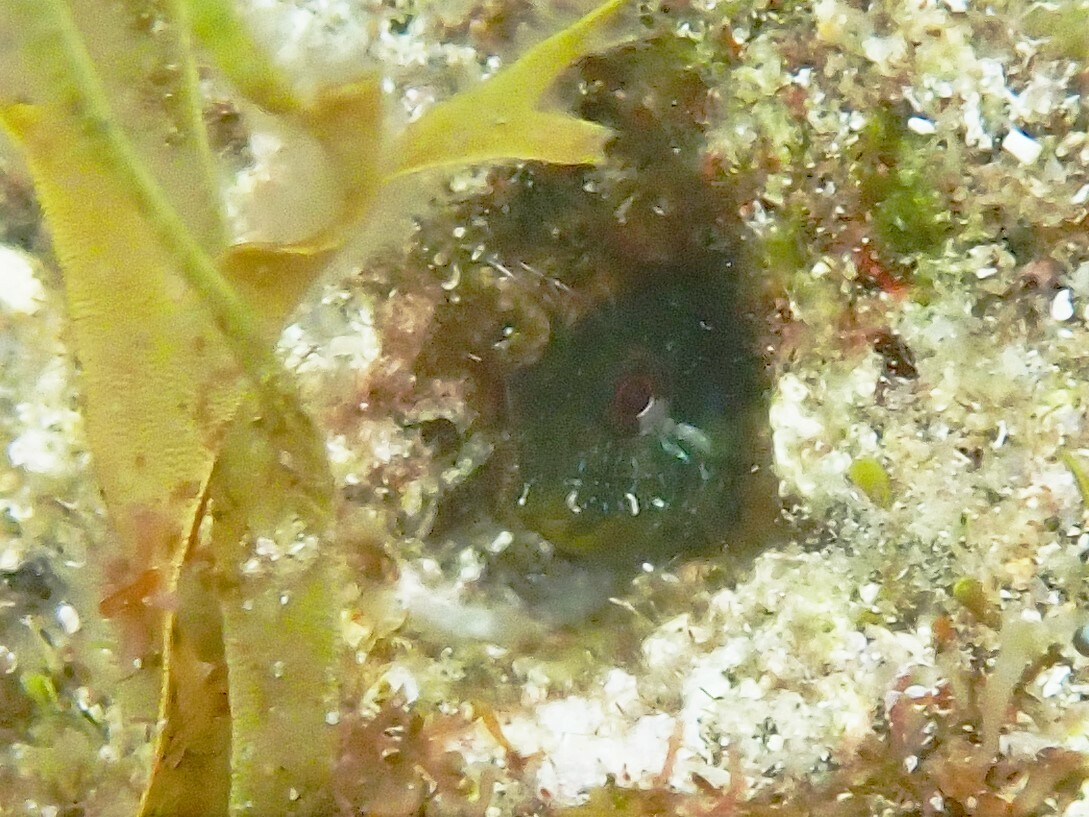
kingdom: Animalia
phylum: Chordata
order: Perciformes
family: Blenniidae
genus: Parablennius
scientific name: Parablennius incognitus
